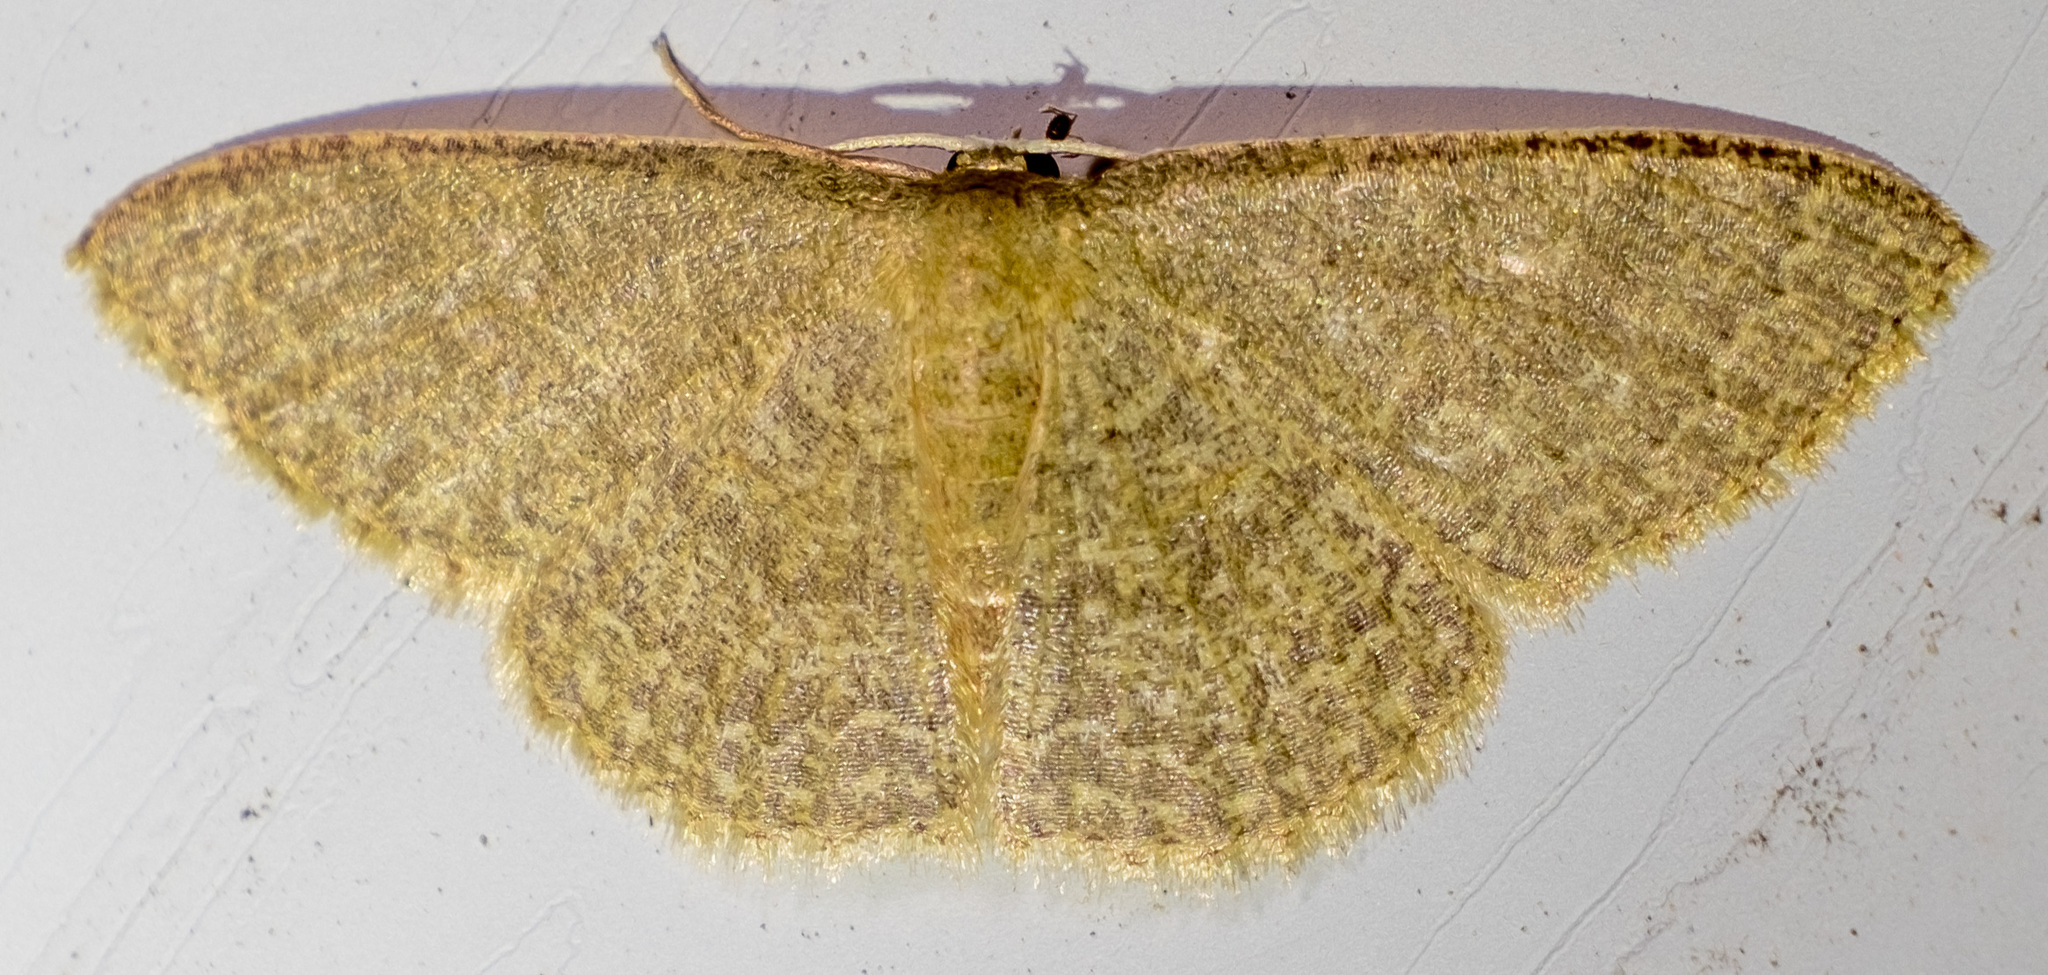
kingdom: Animalia
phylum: Arthropoda
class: Insecta
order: Lepidoptera
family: Geometridae
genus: Pleuroprucha
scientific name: Pleuroprucha insulsaria
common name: Common tan wave
